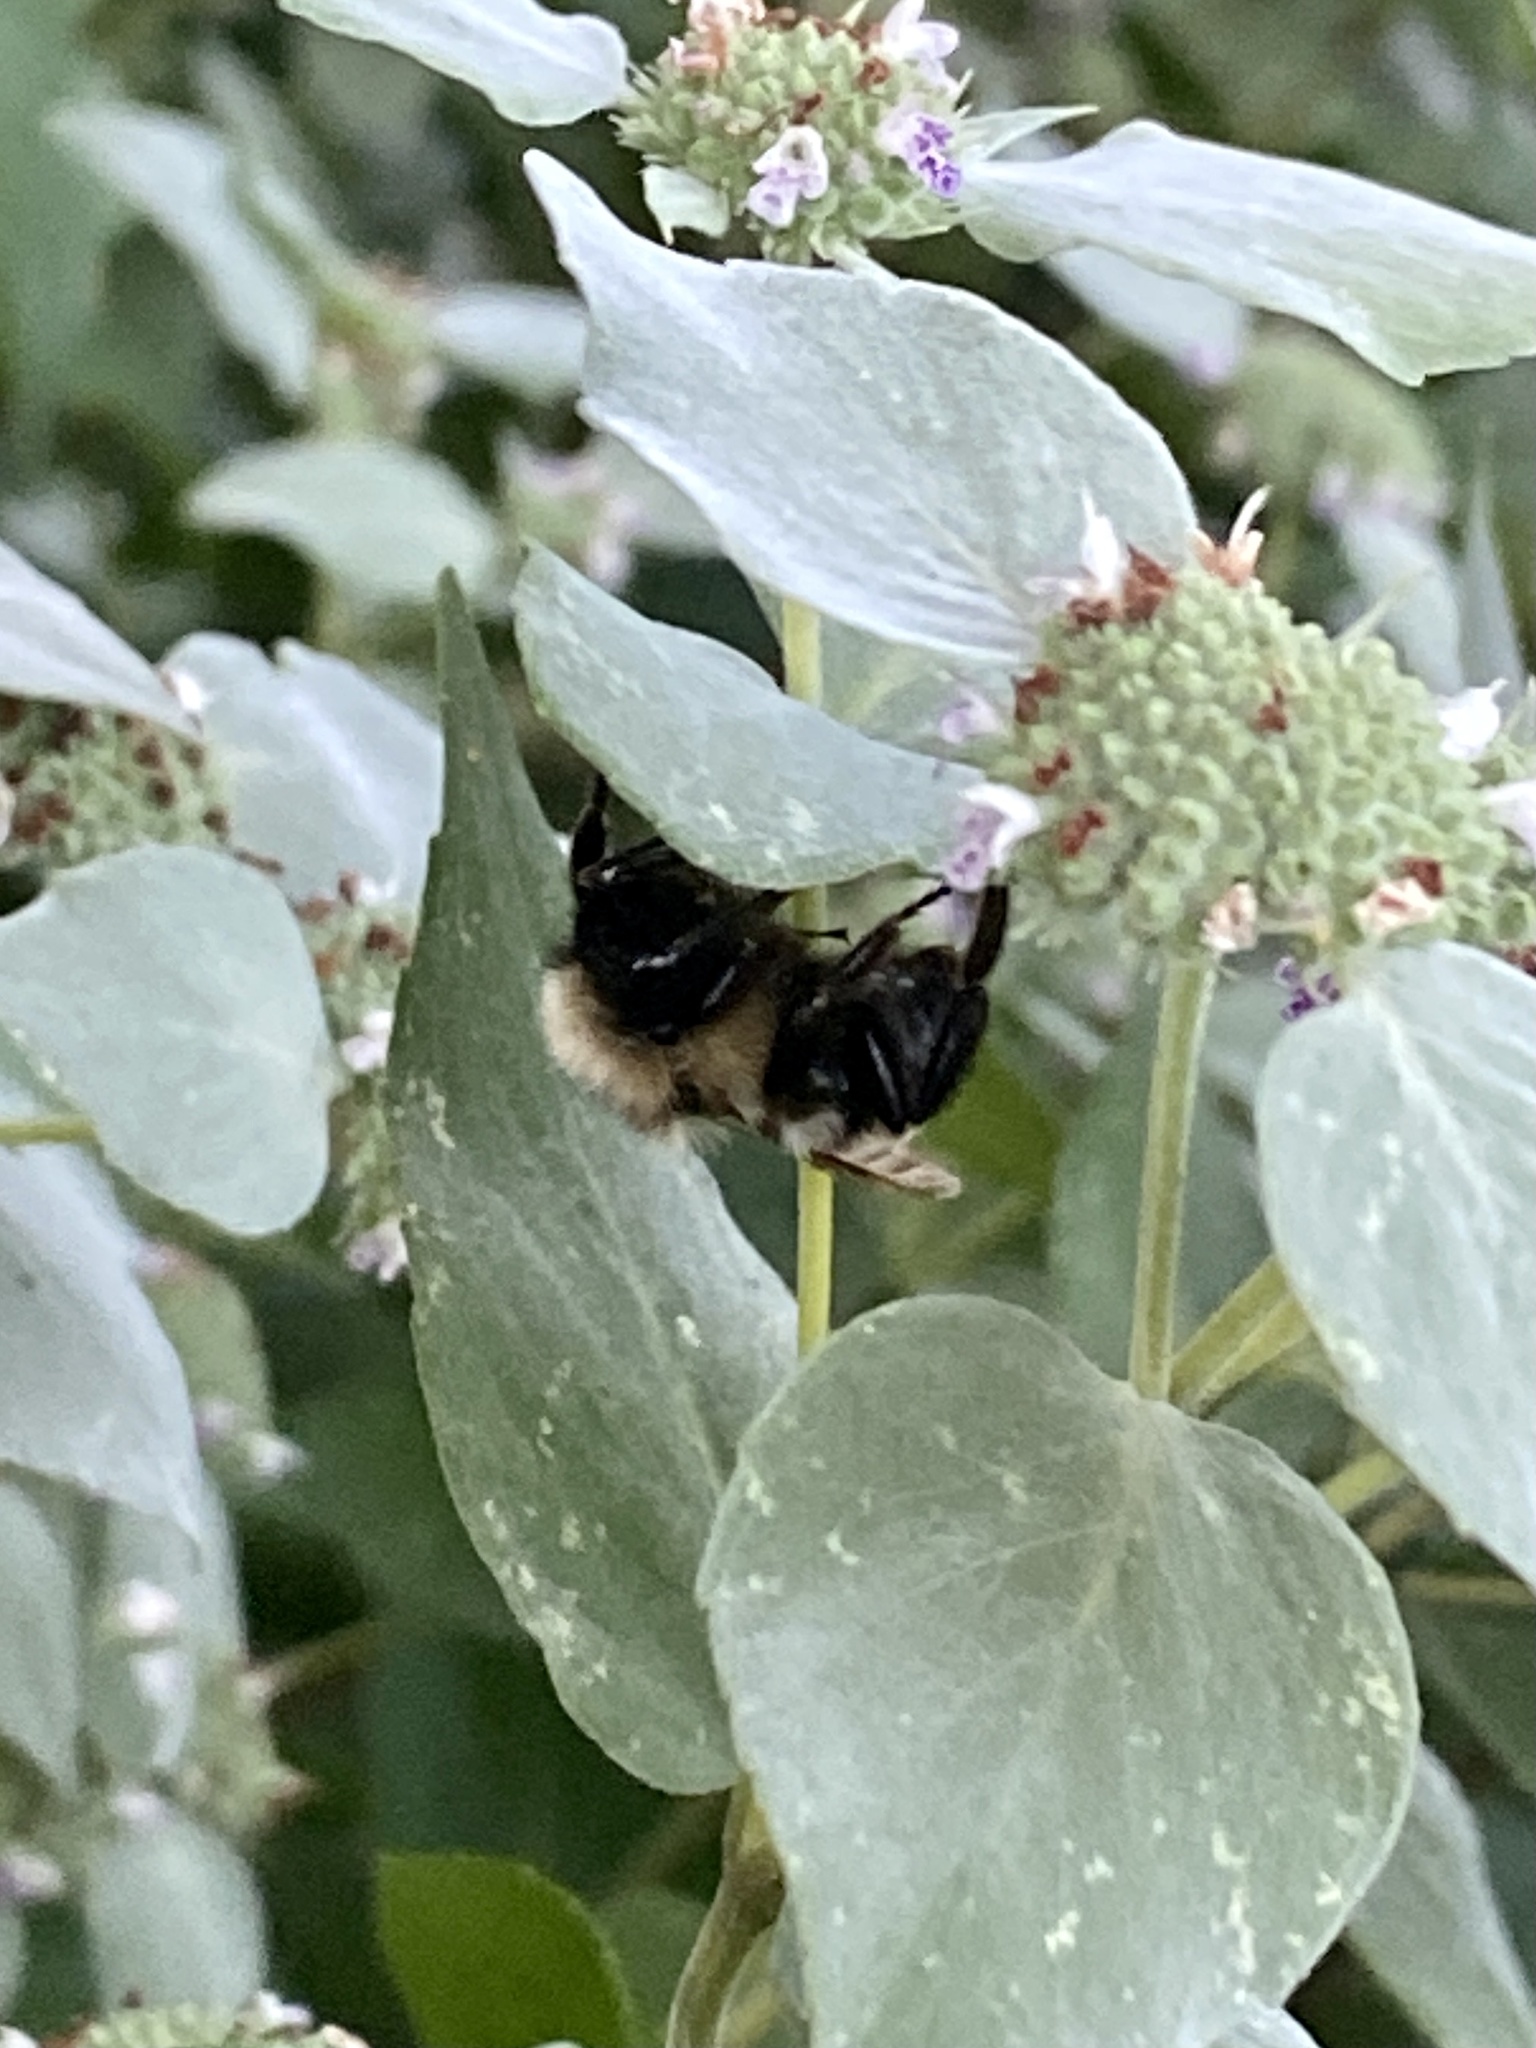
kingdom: Animalia
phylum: Arthropoda
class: Insecta
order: Hymenoptera
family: Apidae
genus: Bombus
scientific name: Bombus citrinus
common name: Lemon cuckoo bumble bee
